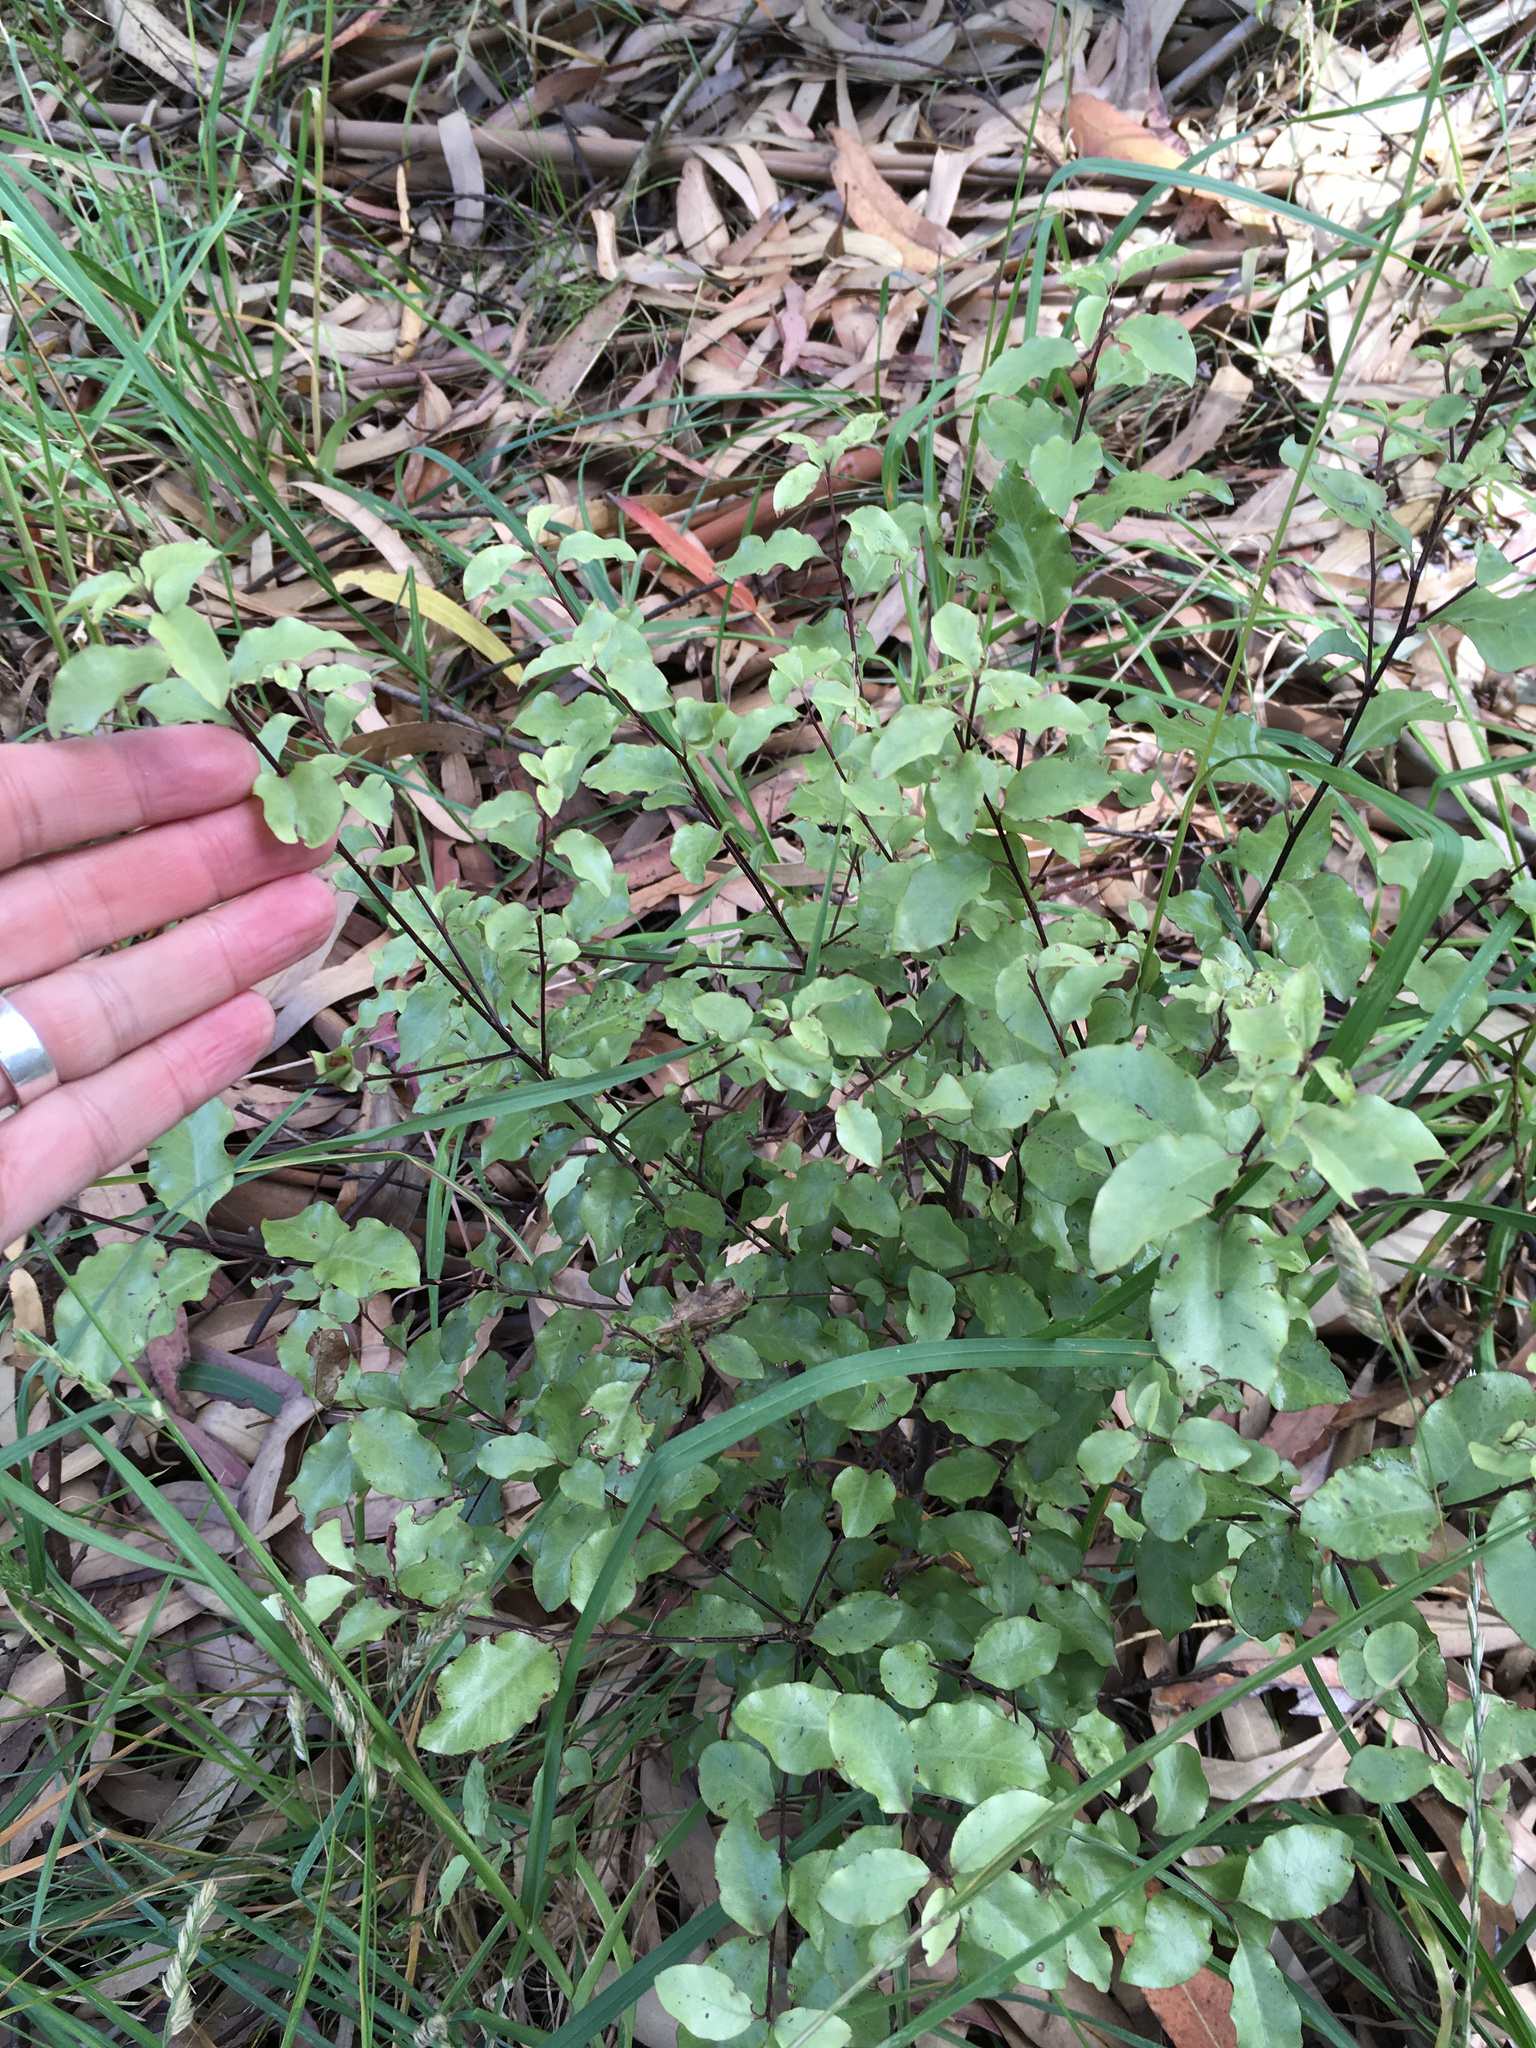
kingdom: Plantae
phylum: Tracheophyta
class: Magnoliopsida
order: Apiales
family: Pittosporaceae
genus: Pittosporum
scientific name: Pittosporum tenuifolium
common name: Kohuhu
